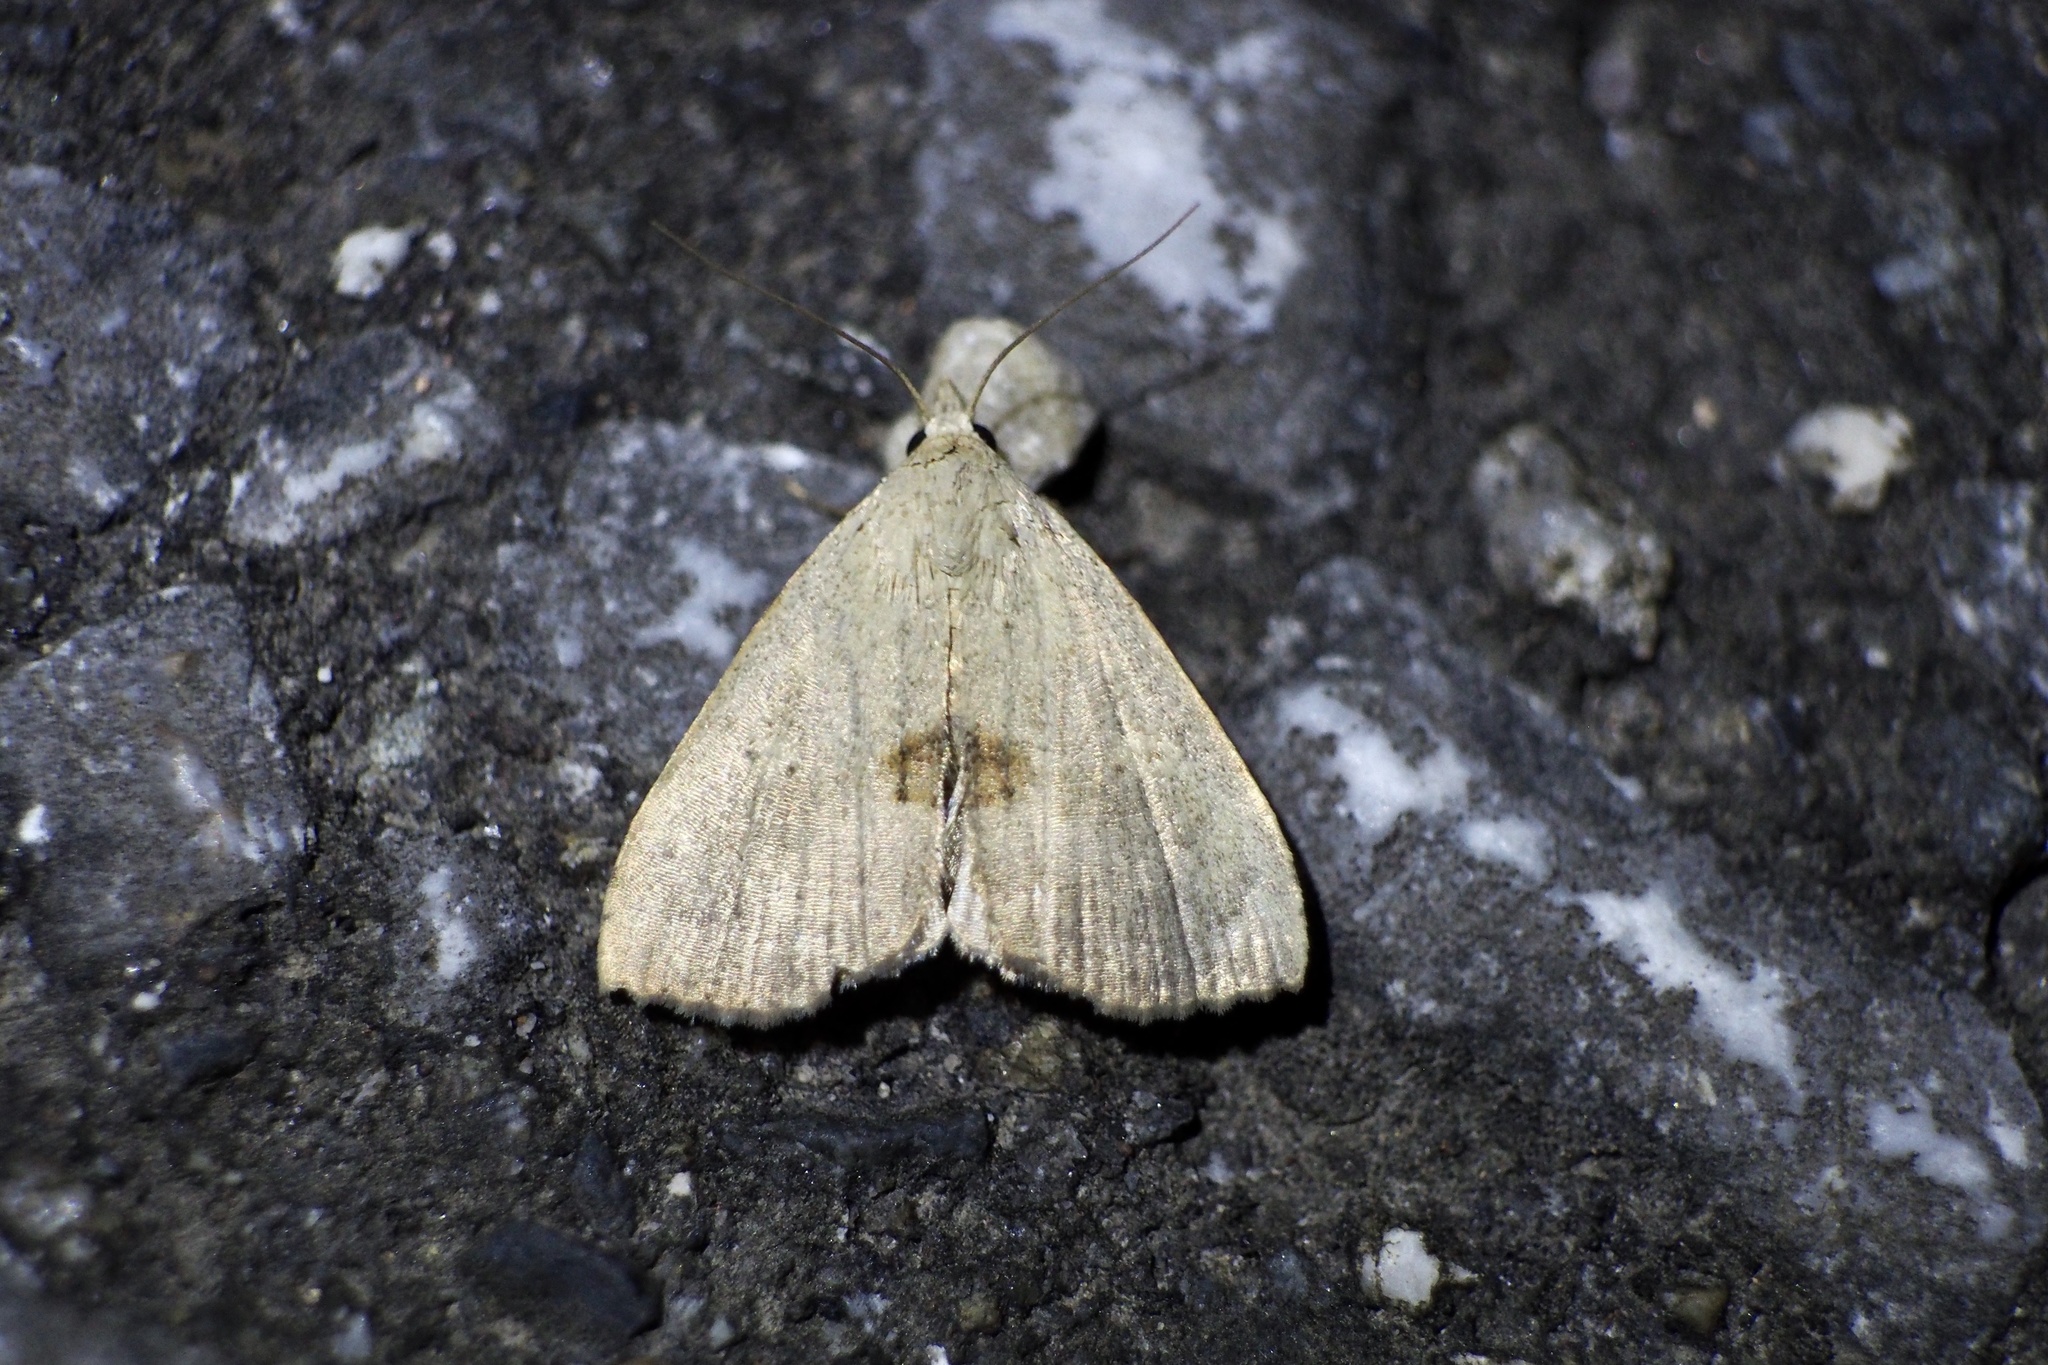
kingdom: Animalia
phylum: Arthropoda
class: Insecta
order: Lepidoptera
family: Erebidae
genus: Gesonia
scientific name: Gesonia fallax
